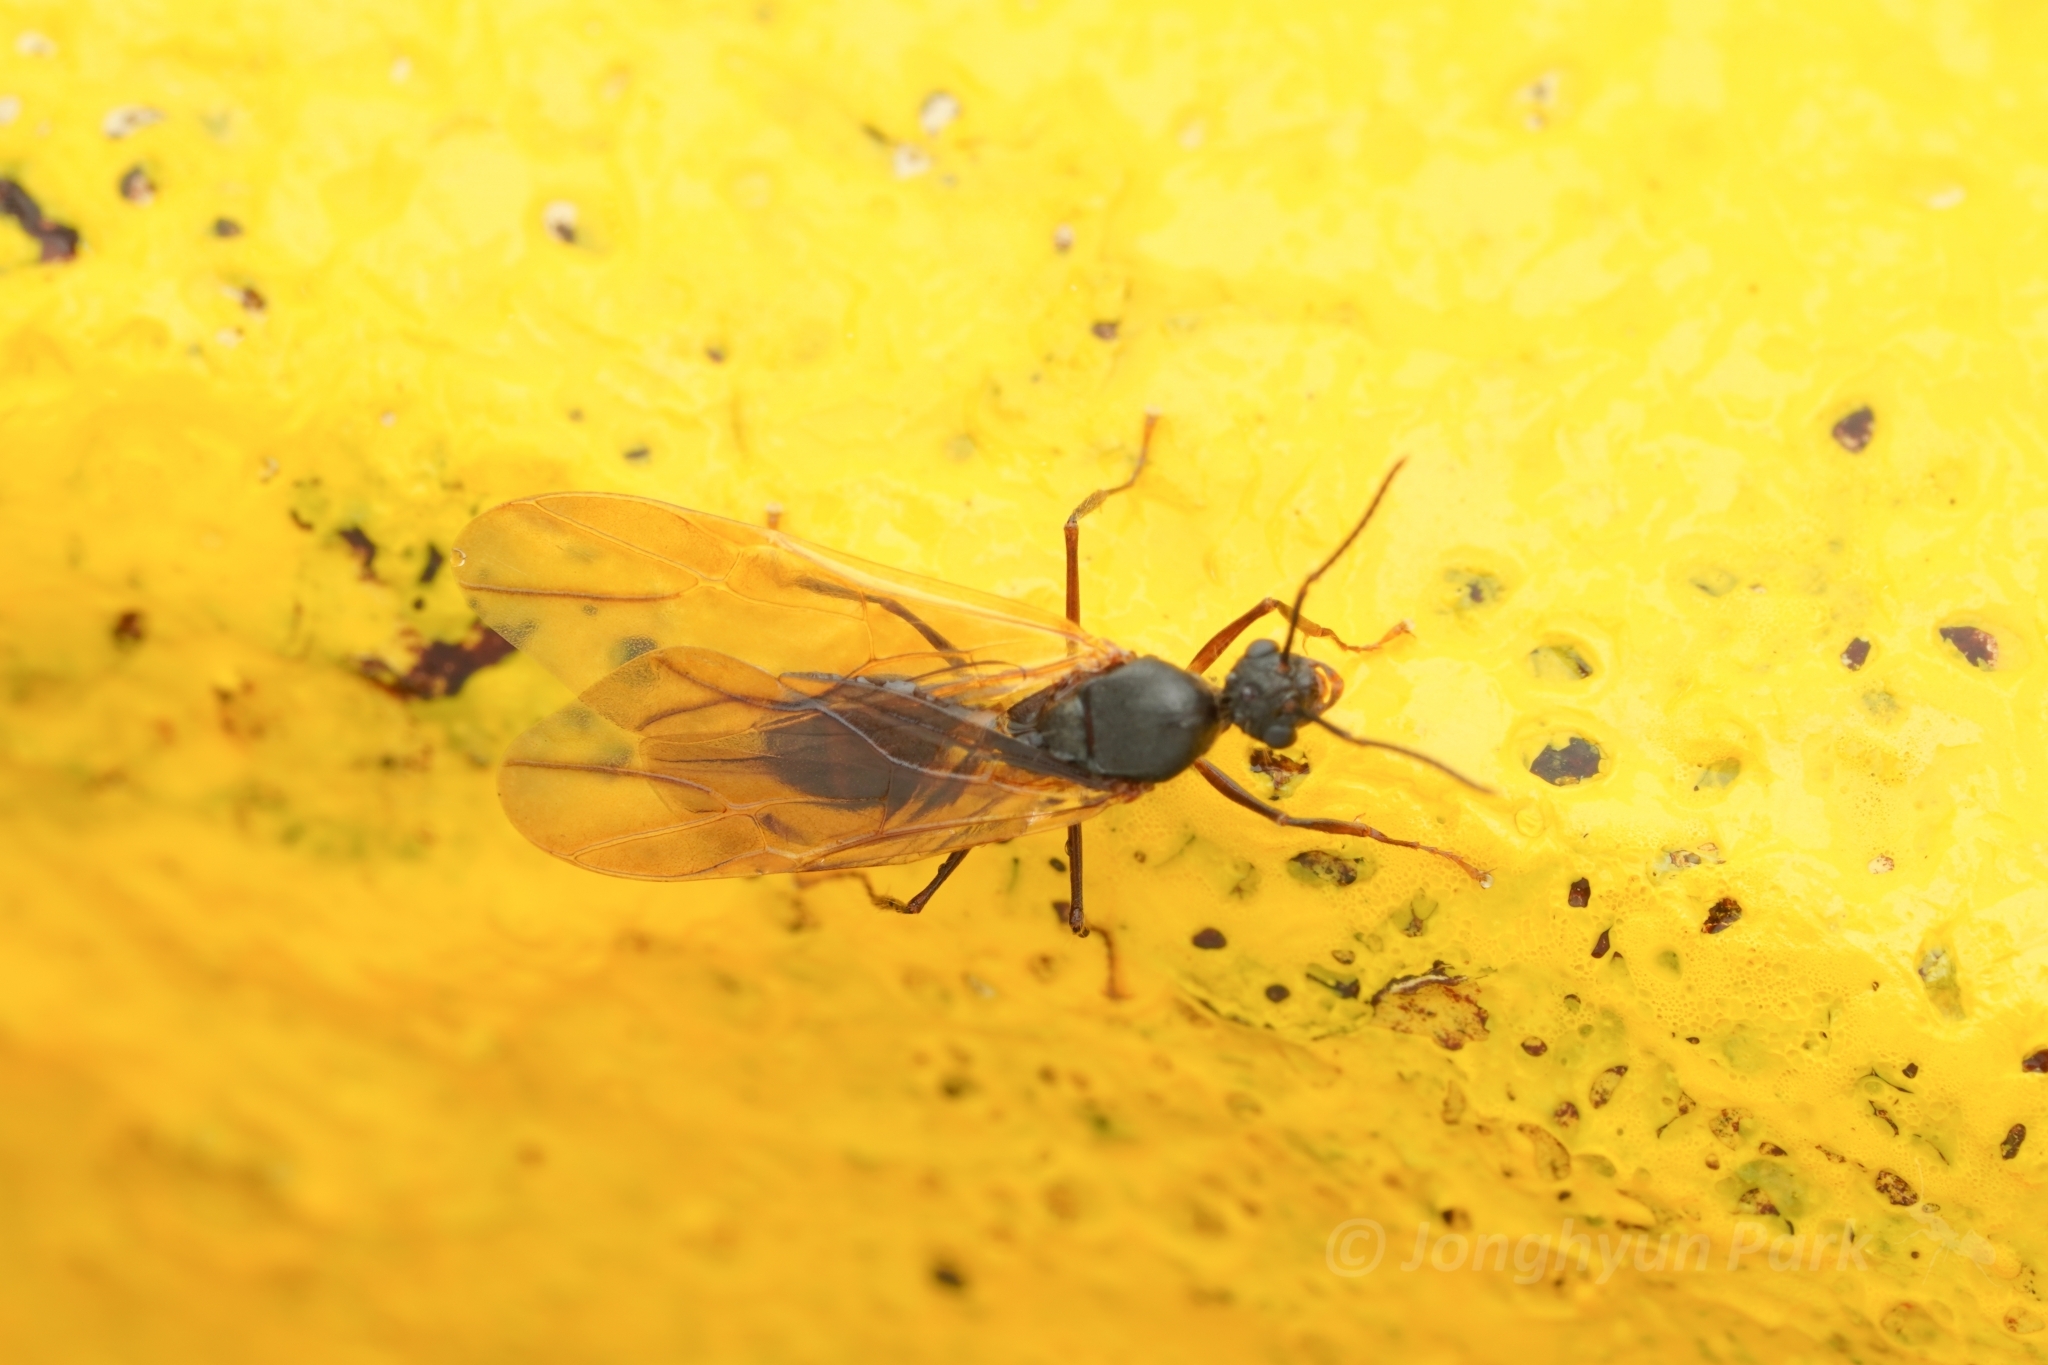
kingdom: Animalia
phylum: Arthropoda
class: Insecta
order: Hymenoptera
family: Formicidae
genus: Echinopla
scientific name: Echinopla tritschleri
